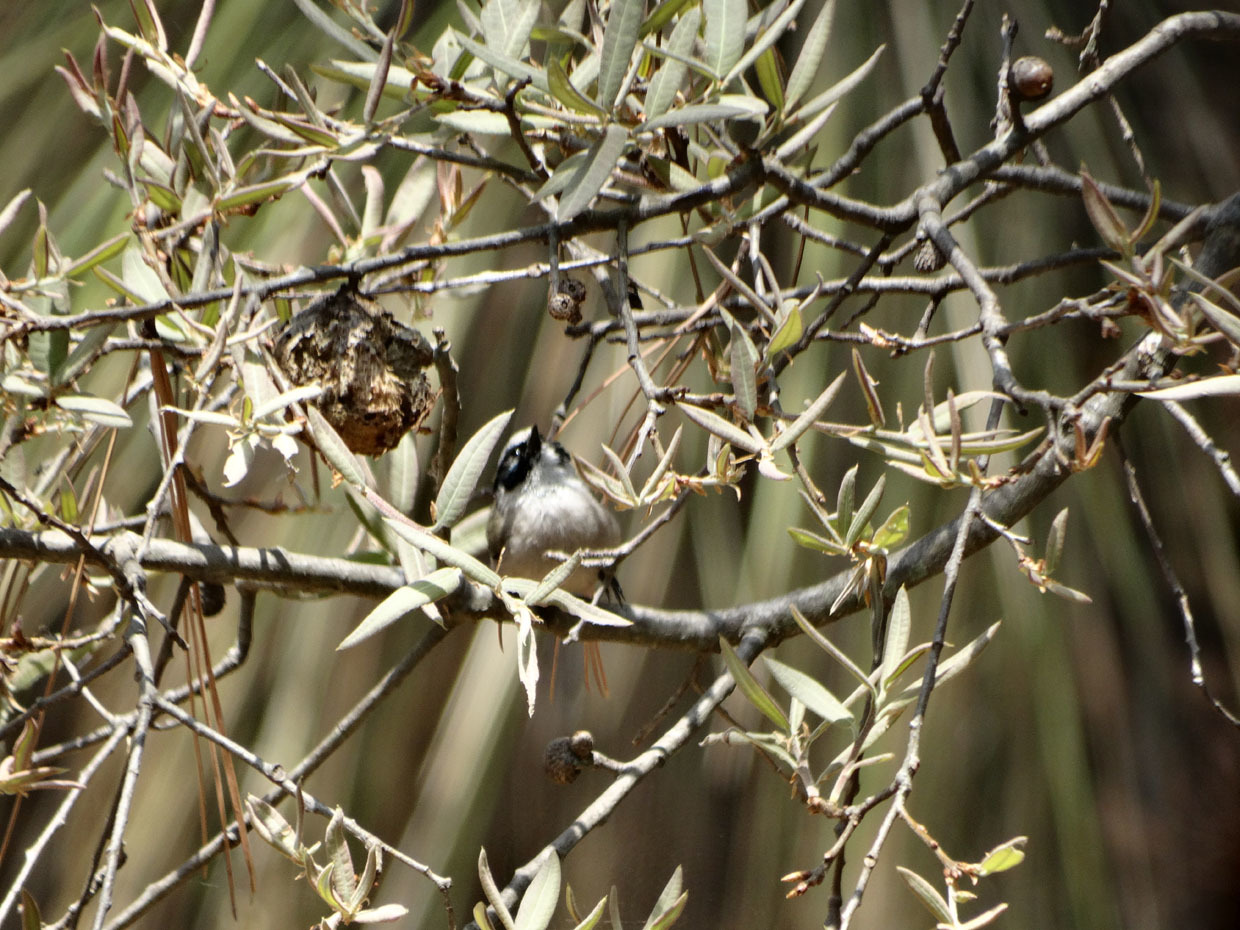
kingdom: Animalia
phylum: Chordata
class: Aves
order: Passeriformes
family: Aegithalidae
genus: Psaltriparus
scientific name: Psaltriparus minimus
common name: American bushtit
